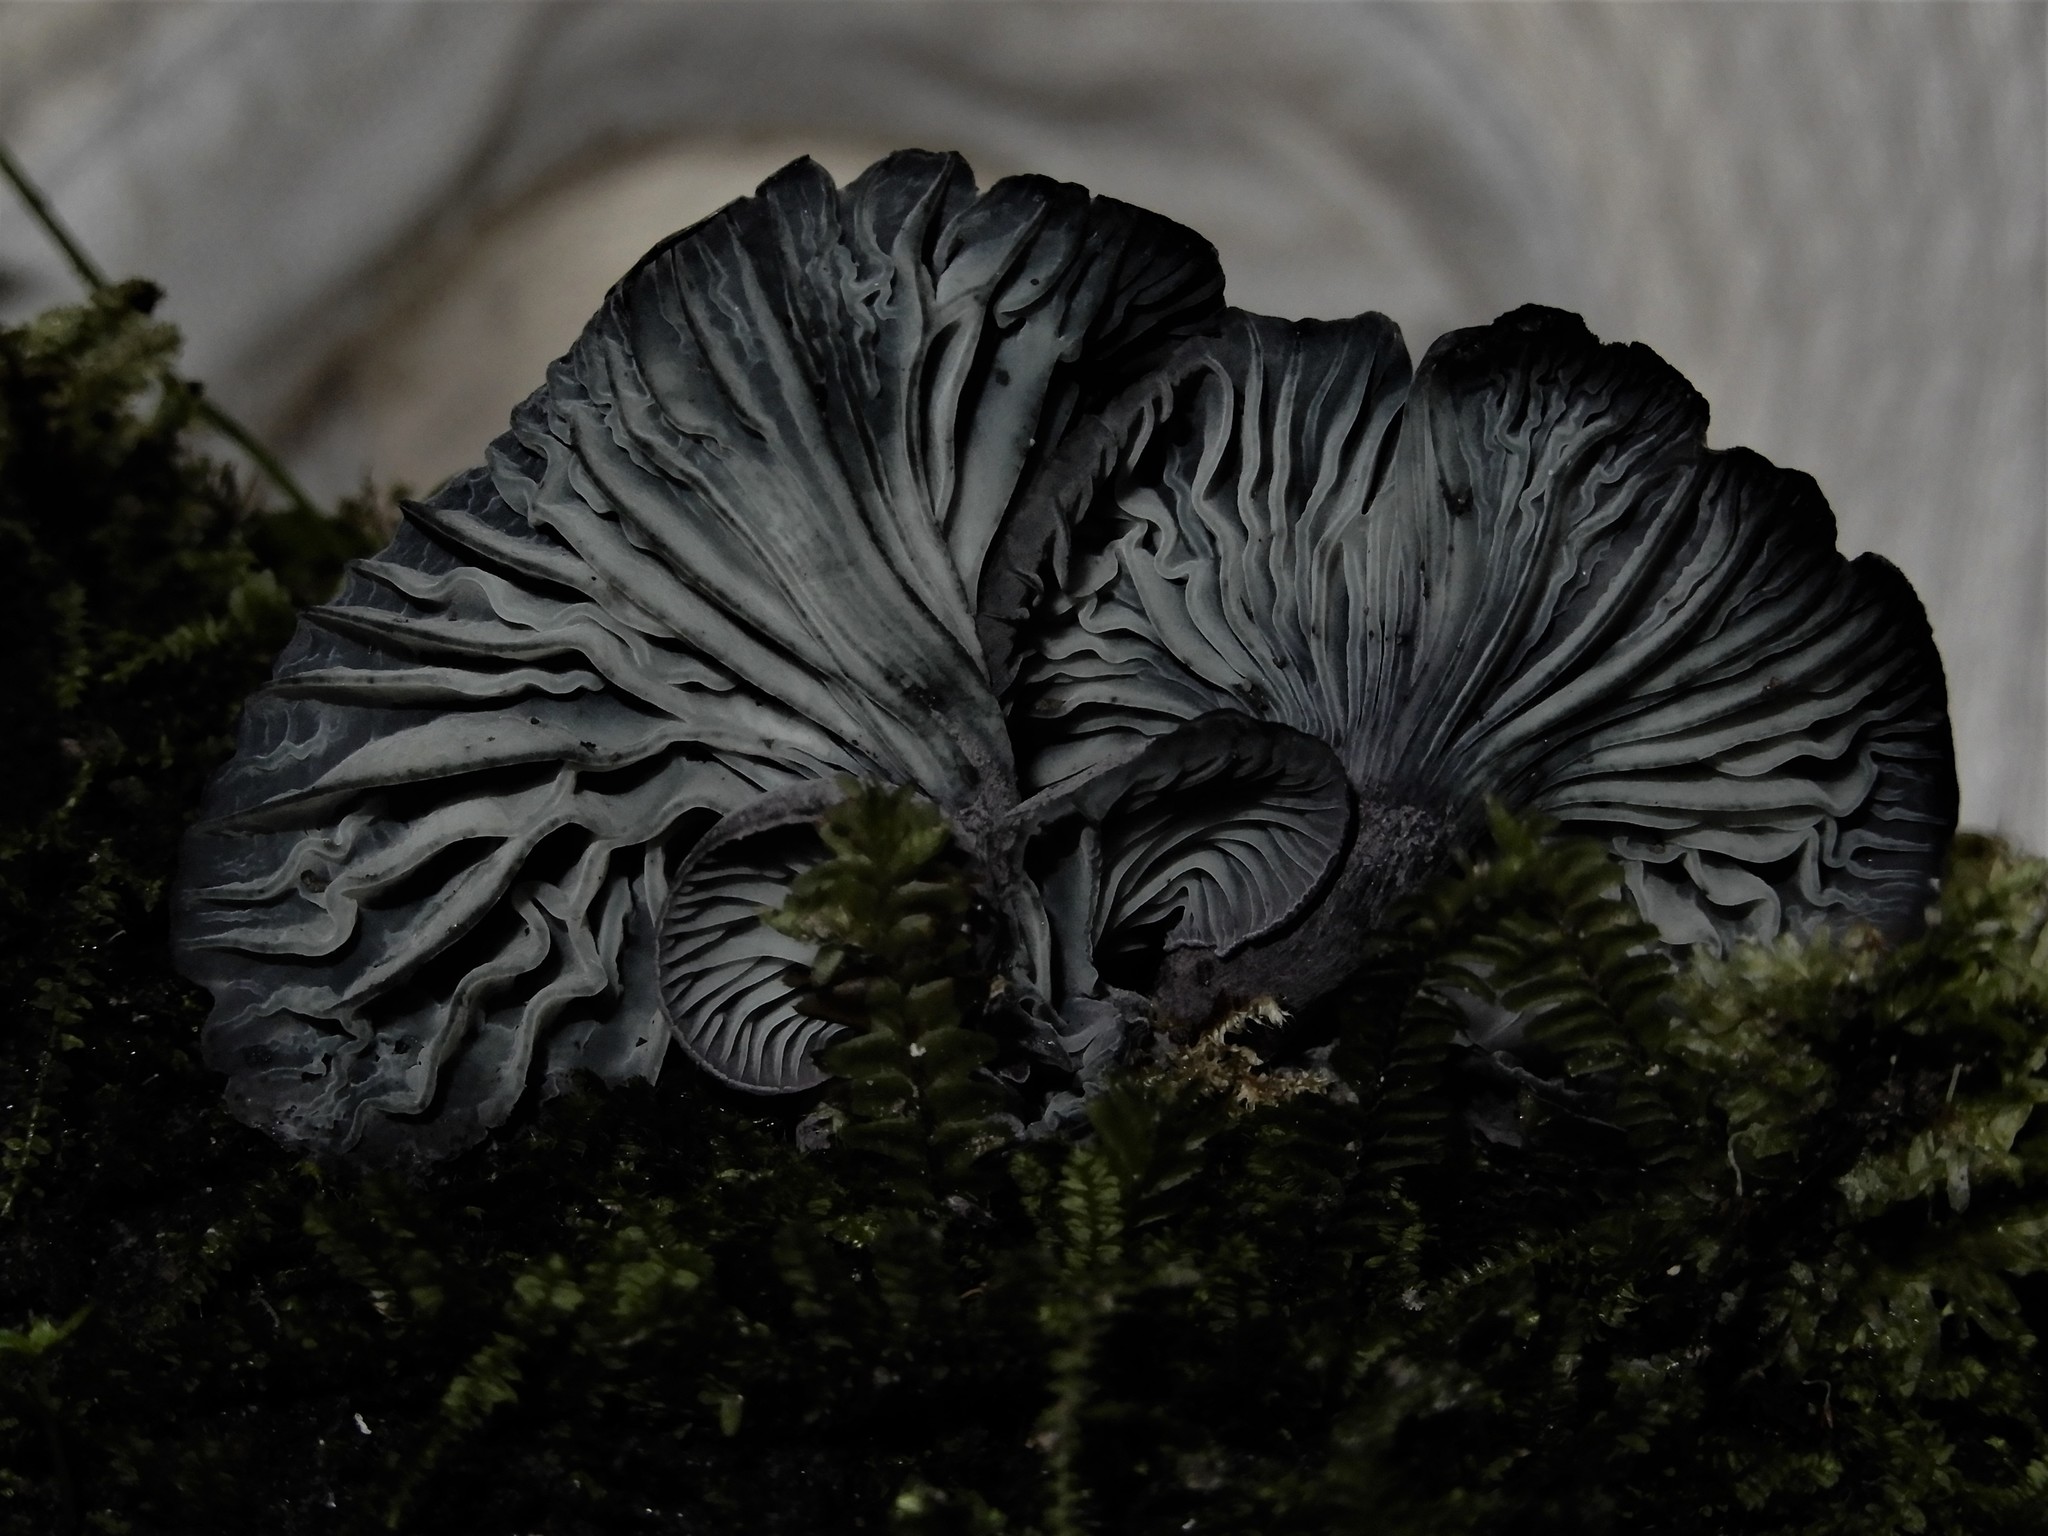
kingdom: Fungi
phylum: Basidiomycota
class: Agaricomycetes
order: Agaricales
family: Marasmiaceae
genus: Gerronema
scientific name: Gerronema waikanaense
